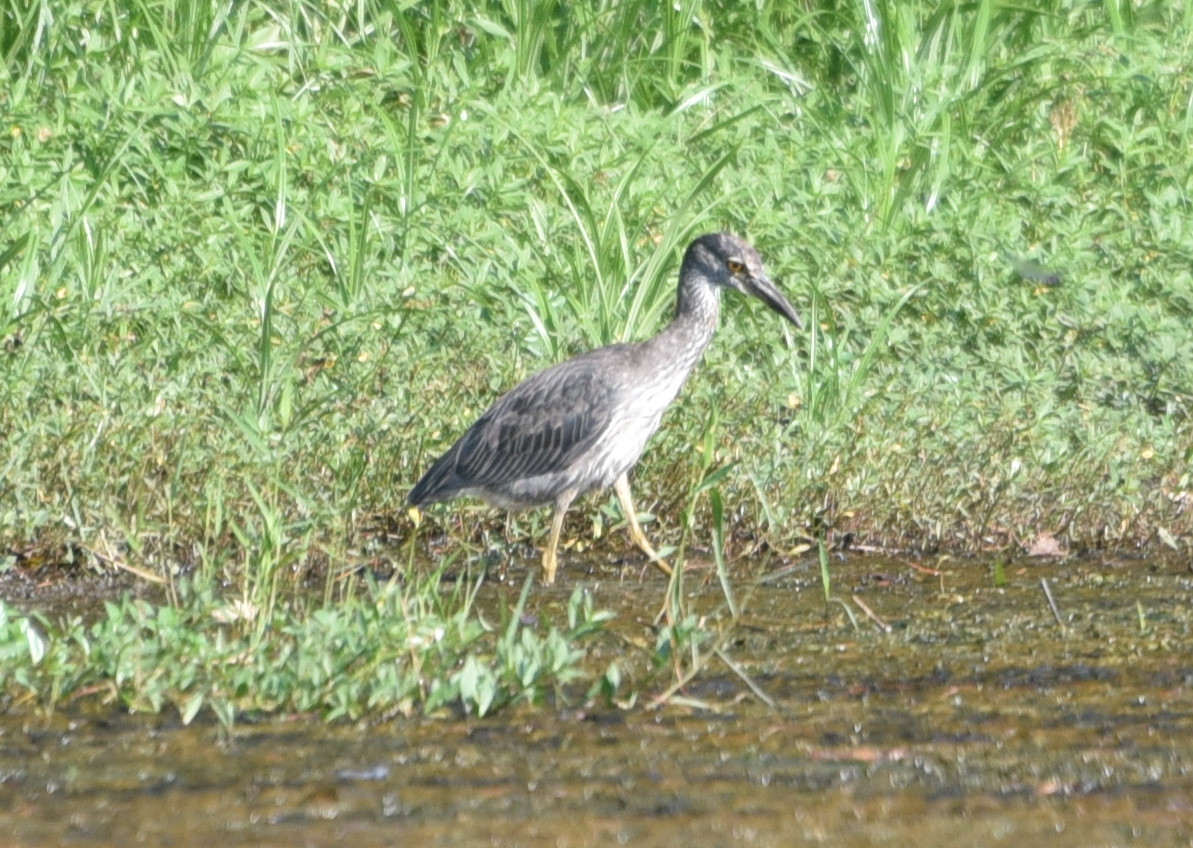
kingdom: Animalia
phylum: Chordata
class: Aves
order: Pelecaniformes
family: Ardeidae
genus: Nyctanassa
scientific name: Nyctanassa violacea
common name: Yellow-crowned night heron
